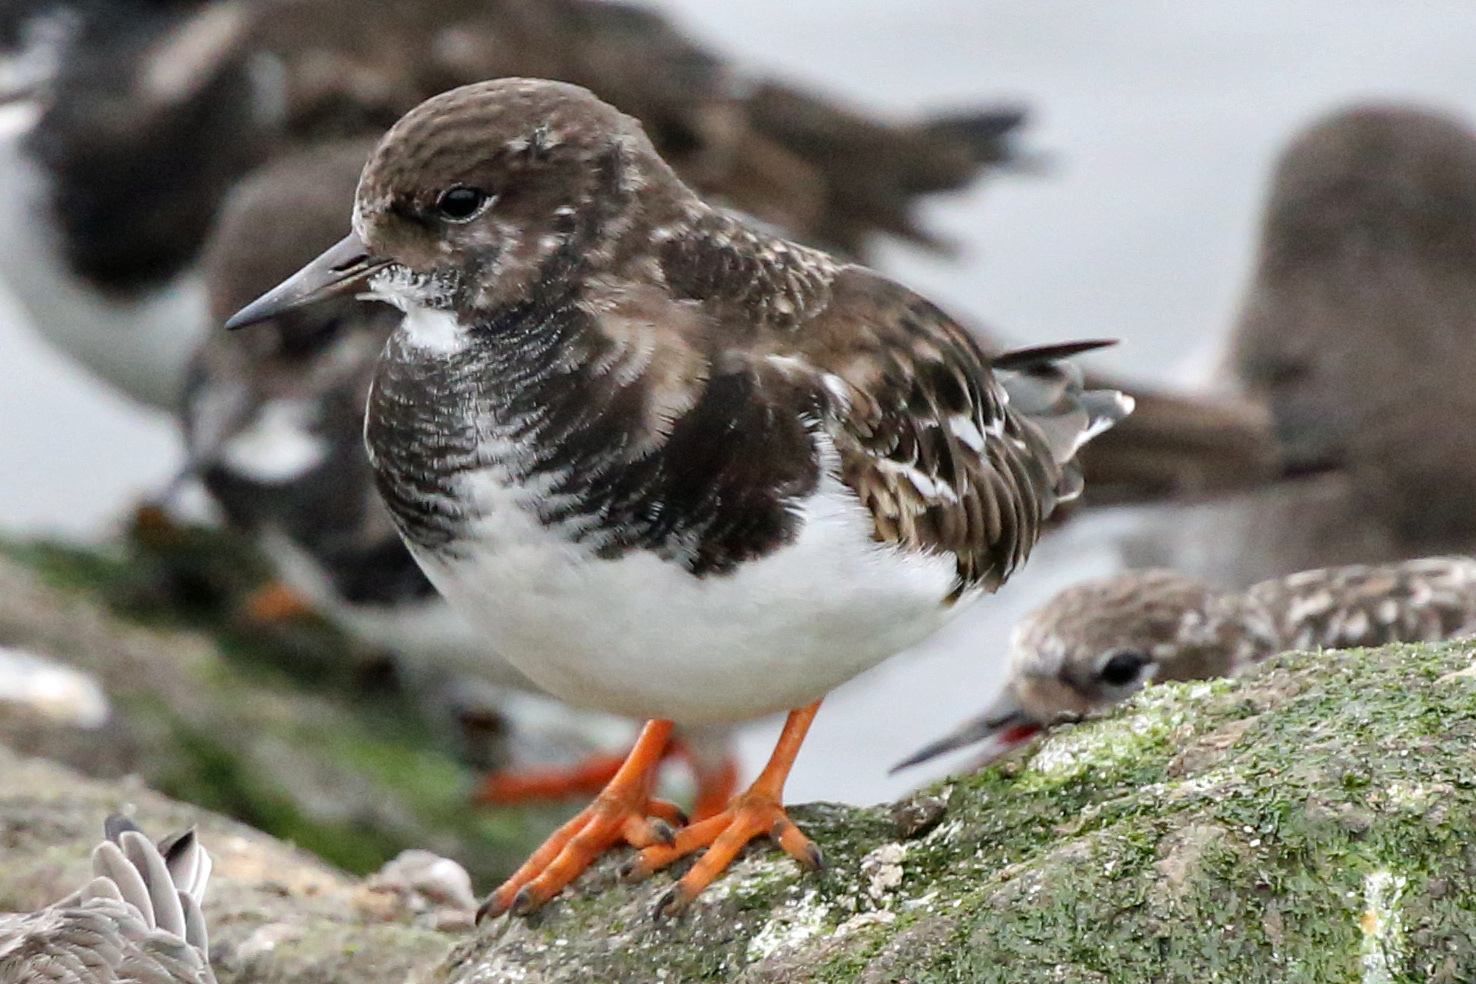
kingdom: Animalia
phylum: Chordata
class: Aves
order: Charadriiformes
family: Scolopacidae
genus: Arenaria
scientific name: Arenaria interpres
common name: Ruddy turnstone
